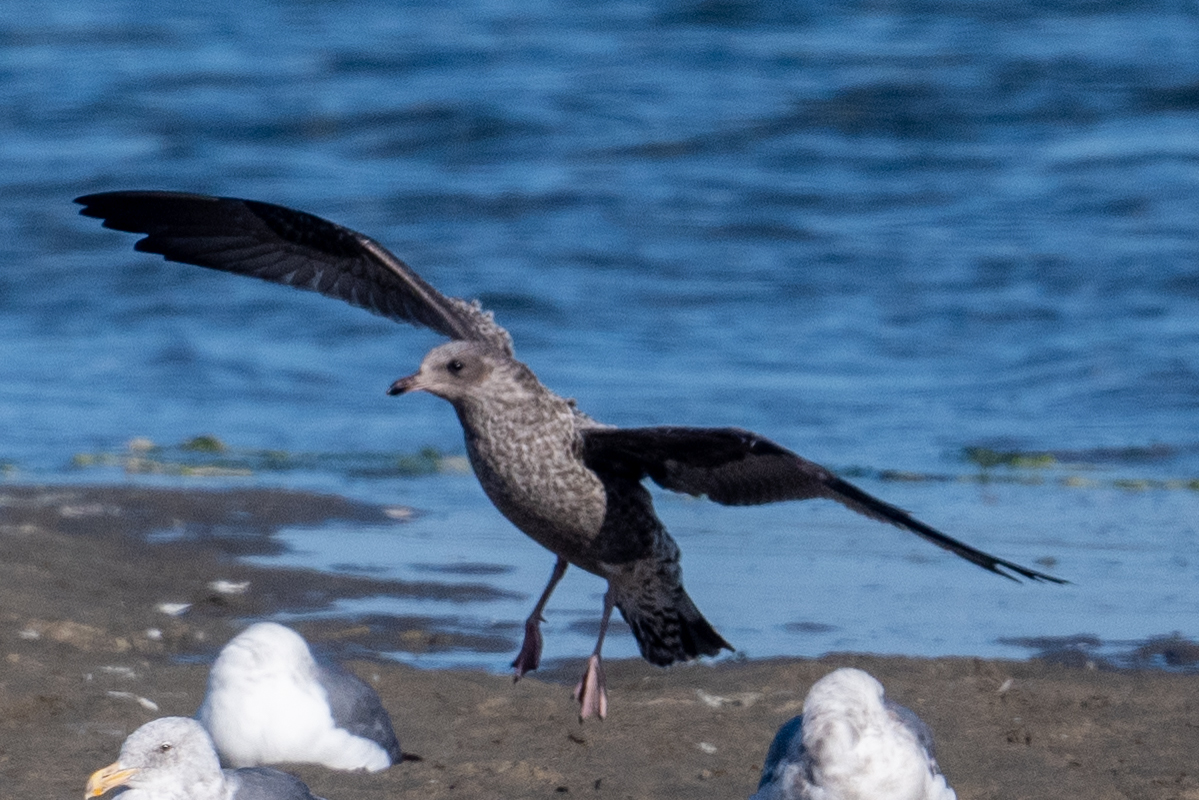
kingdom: Animalia
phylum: Chordata
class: Aves
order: Charadriiformes
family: Laridae
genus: Larus
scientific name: Larus occidentalis
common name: Western gull
